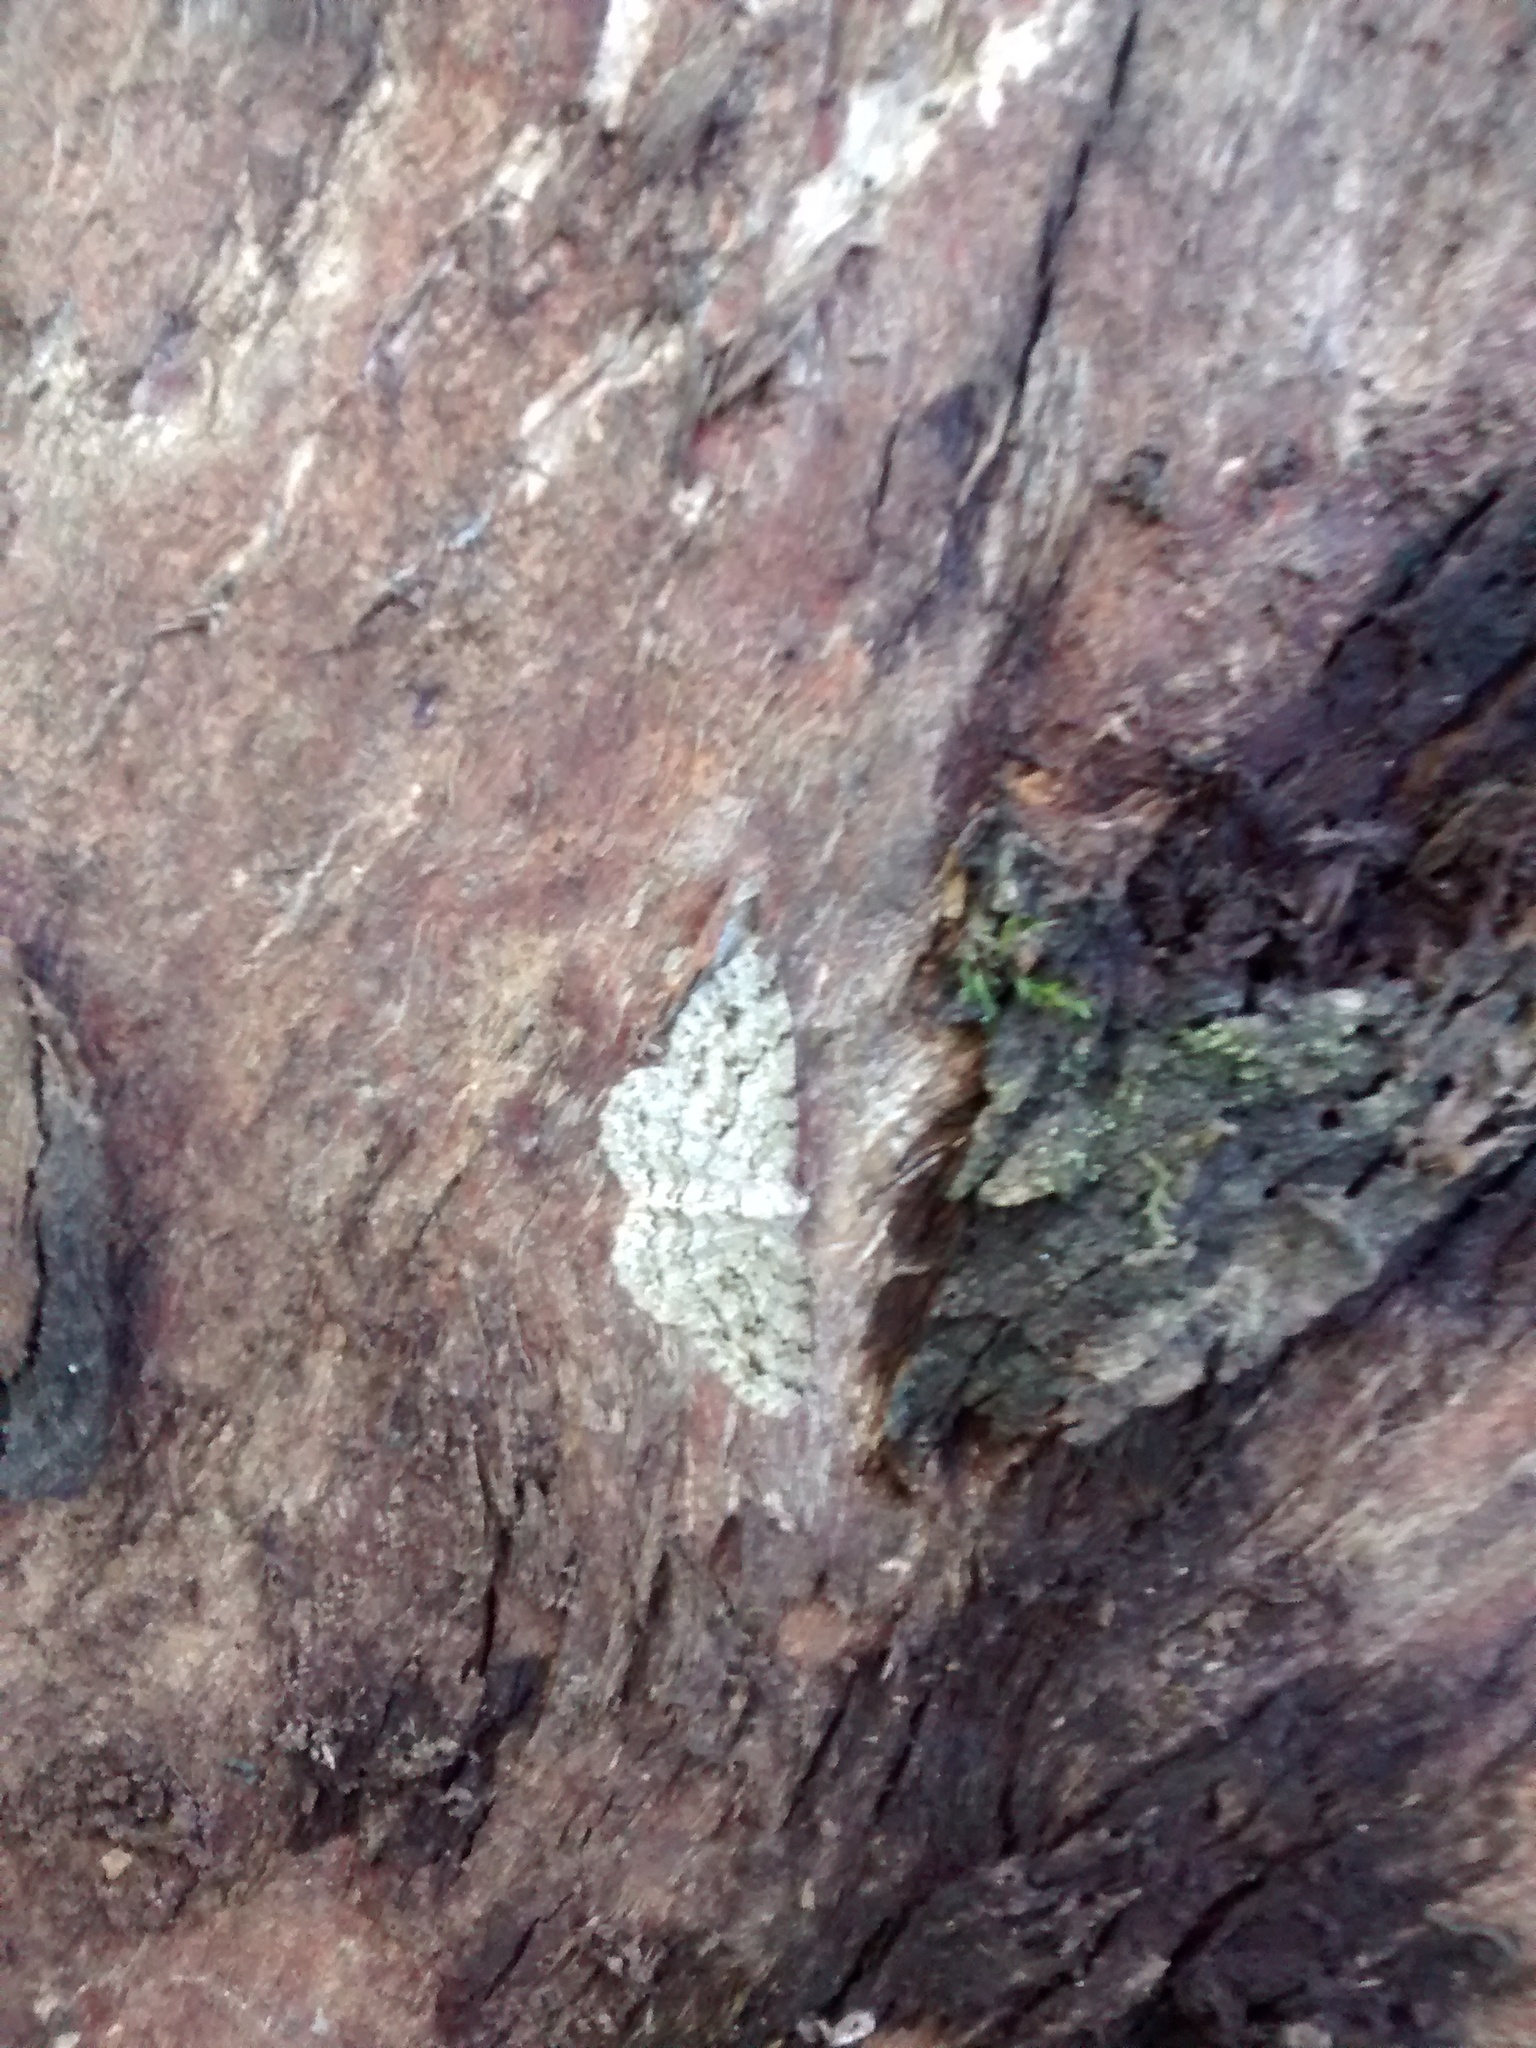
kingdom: Animalia
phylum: Arthropoda
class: Insecta
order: Lepidoptera
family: Geometridae
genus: Ectropis
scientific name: Ectropis crepuscularia
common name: Engrailed
